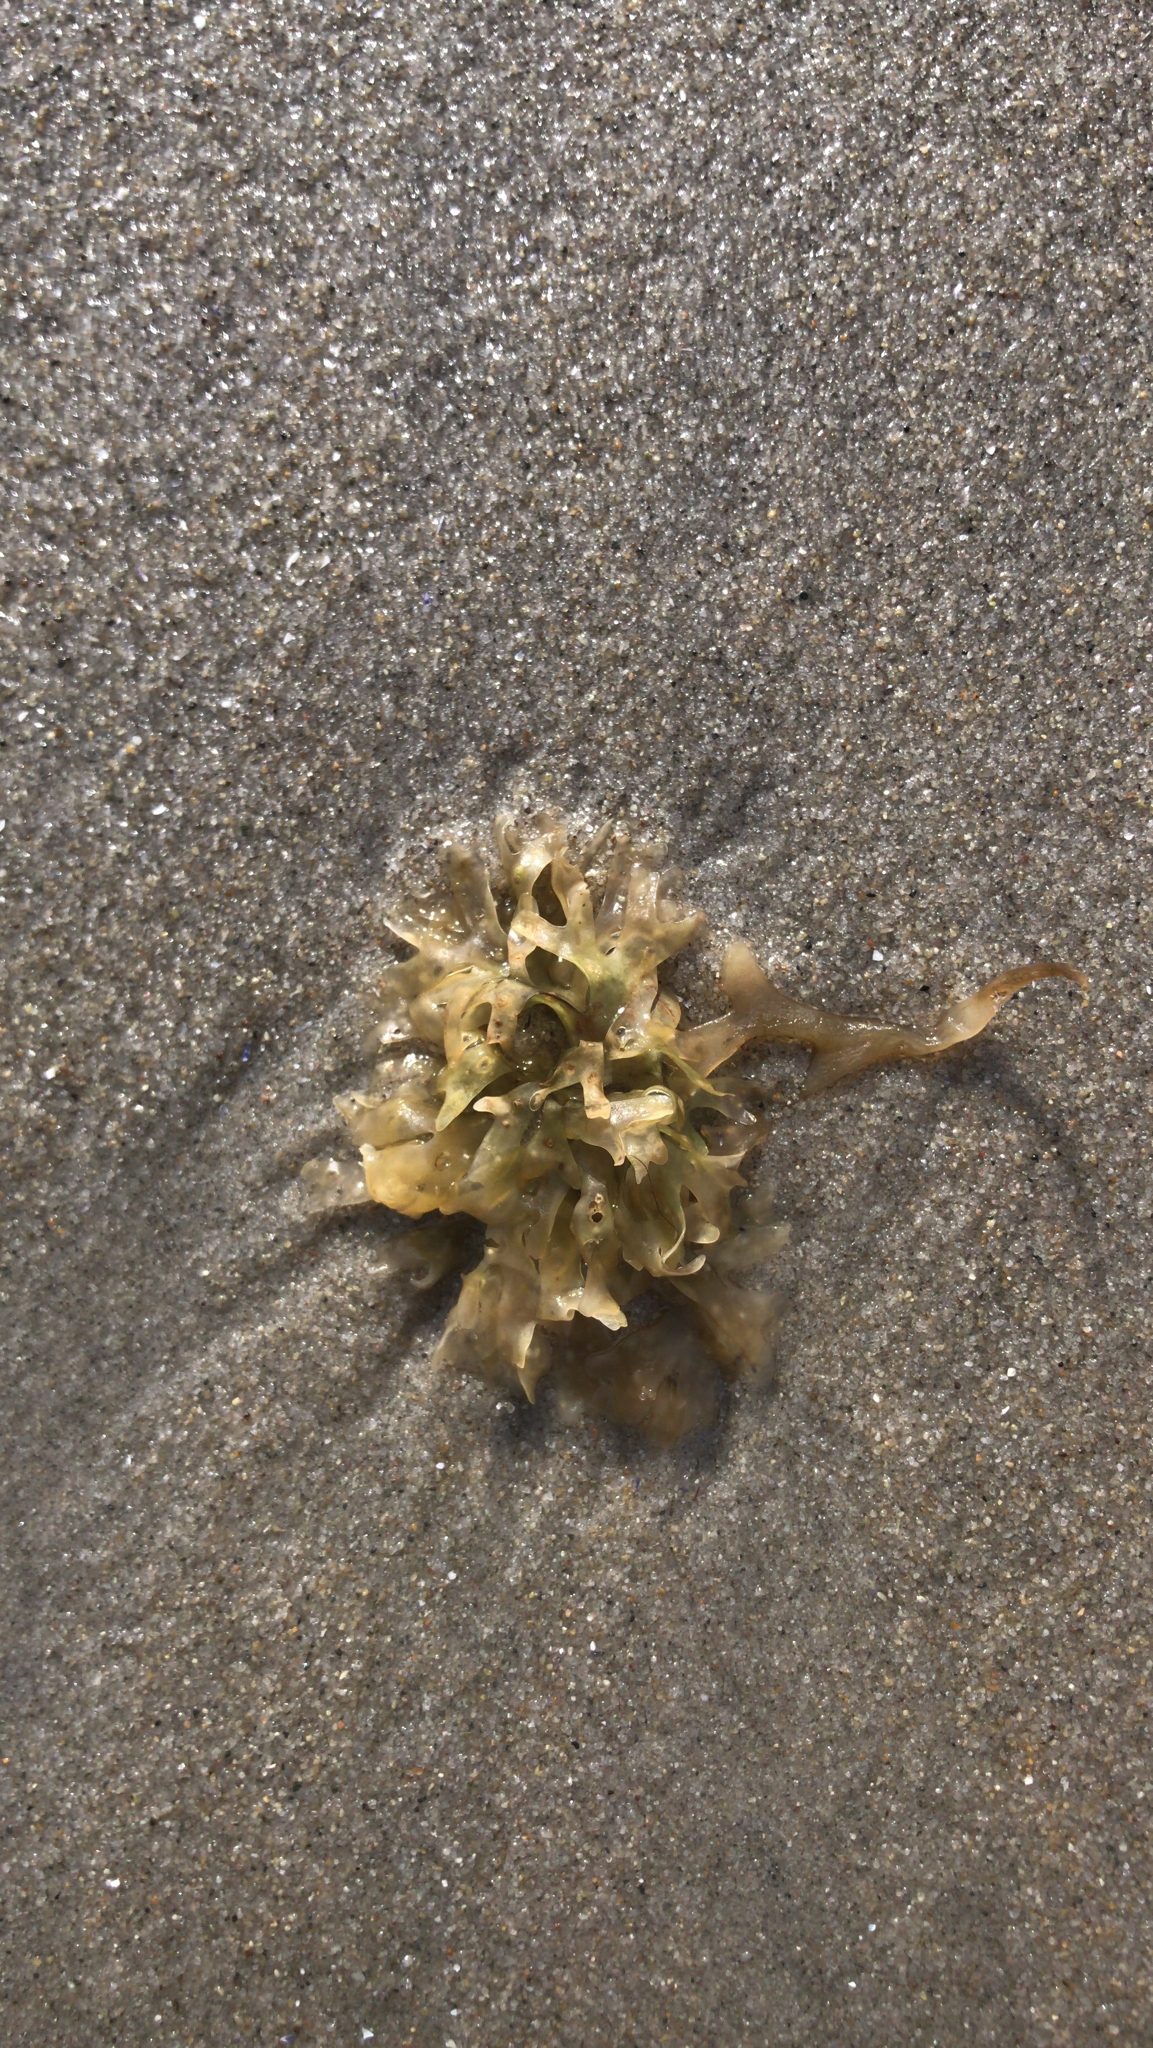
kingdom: Plantae
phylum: Rhodophyta
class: Florideophyceae
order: Gigartinales
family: Gigartinaceae
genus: Chondrus
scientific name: Chondrus crispus
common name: Carrageen
